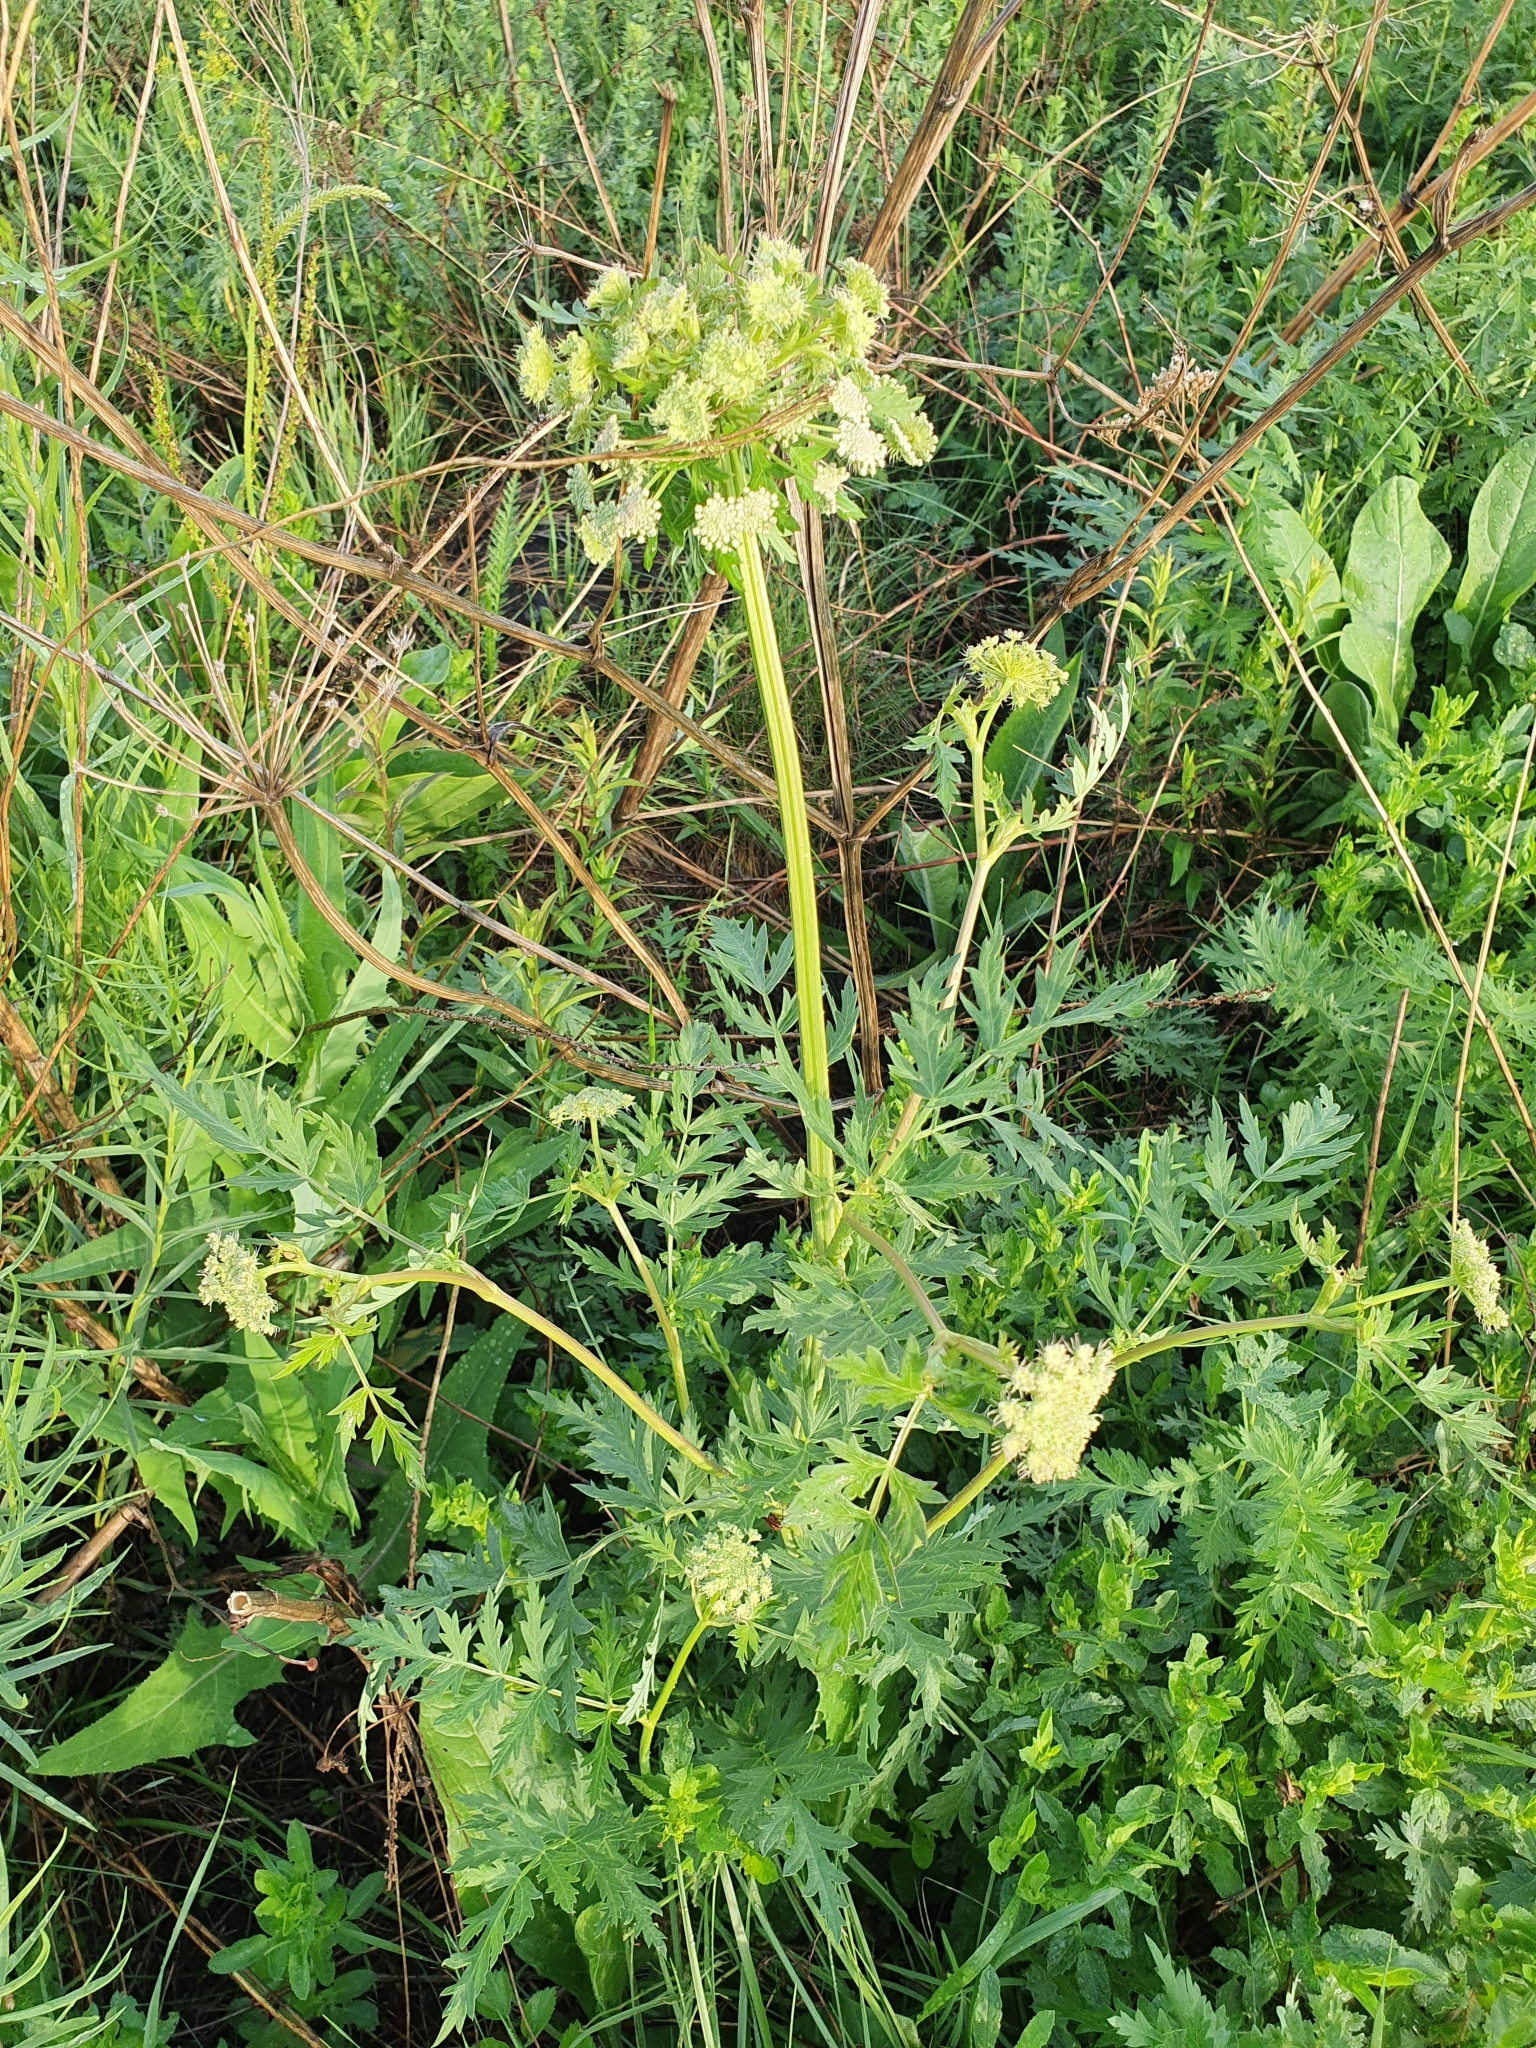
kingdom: Plantae
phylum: Tracheophyta
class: Magnoliopsida
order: Apiales
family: Apiaceae
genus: Seseli
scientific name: Seseli libanotis
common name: Mooncarrot
